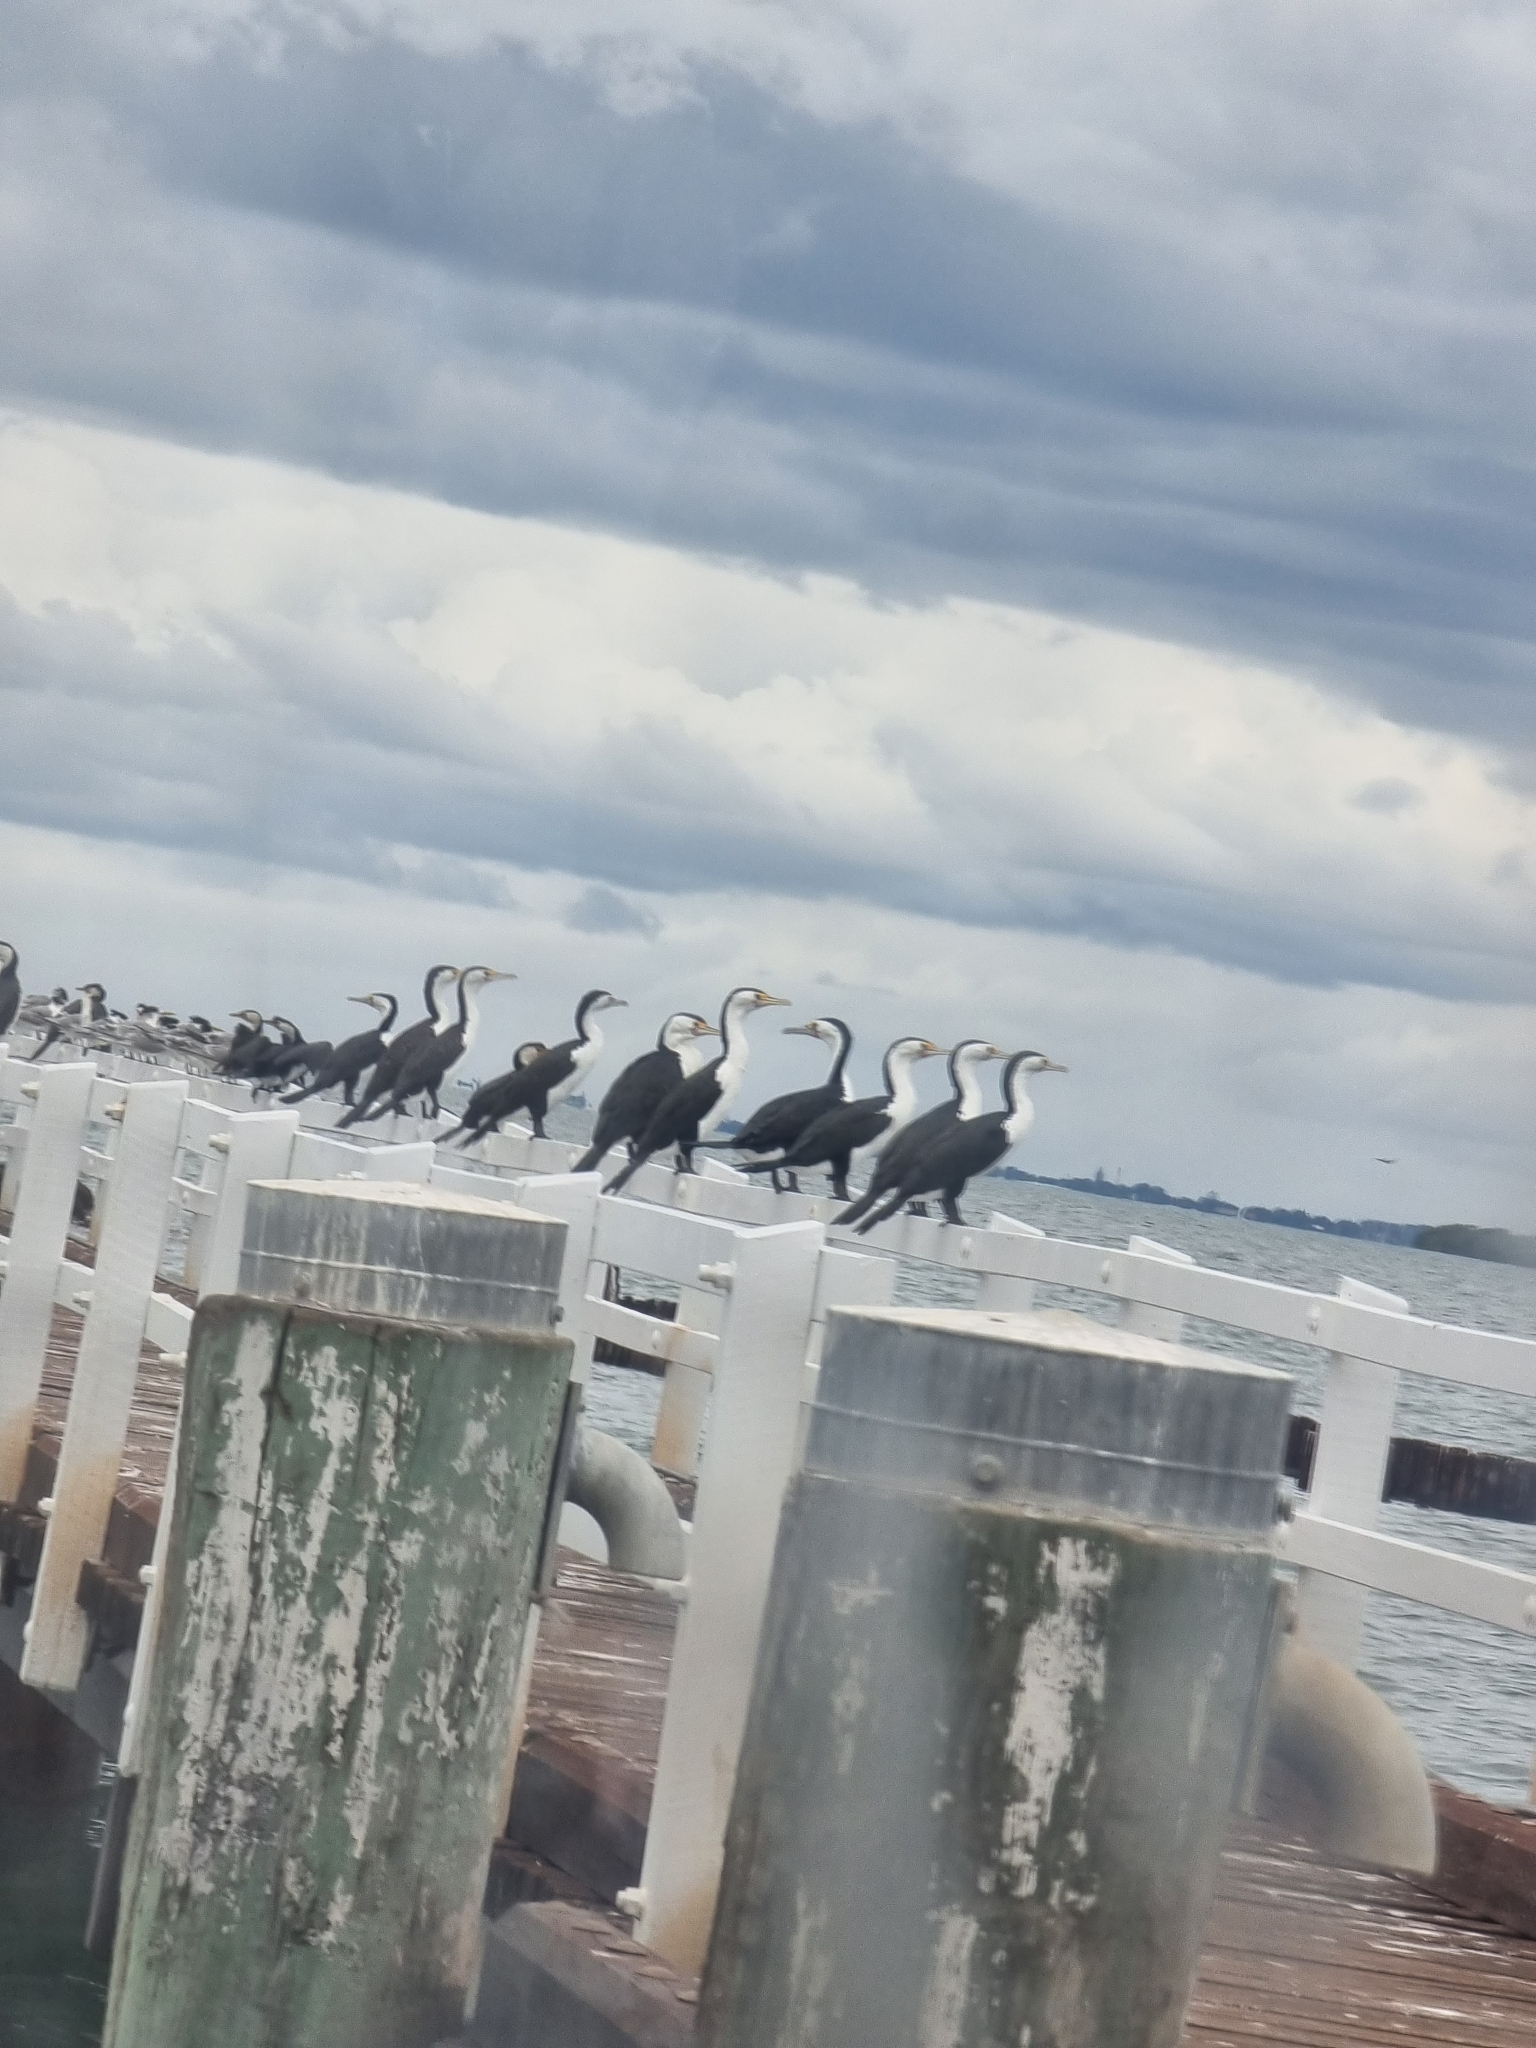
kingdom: Animalia
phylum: Chordata
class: Aves
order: Suliformes
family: Phalacrocoracidae
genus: Phalacrocorax
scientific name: Phalacrocorax varius
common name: Pied cormorant
